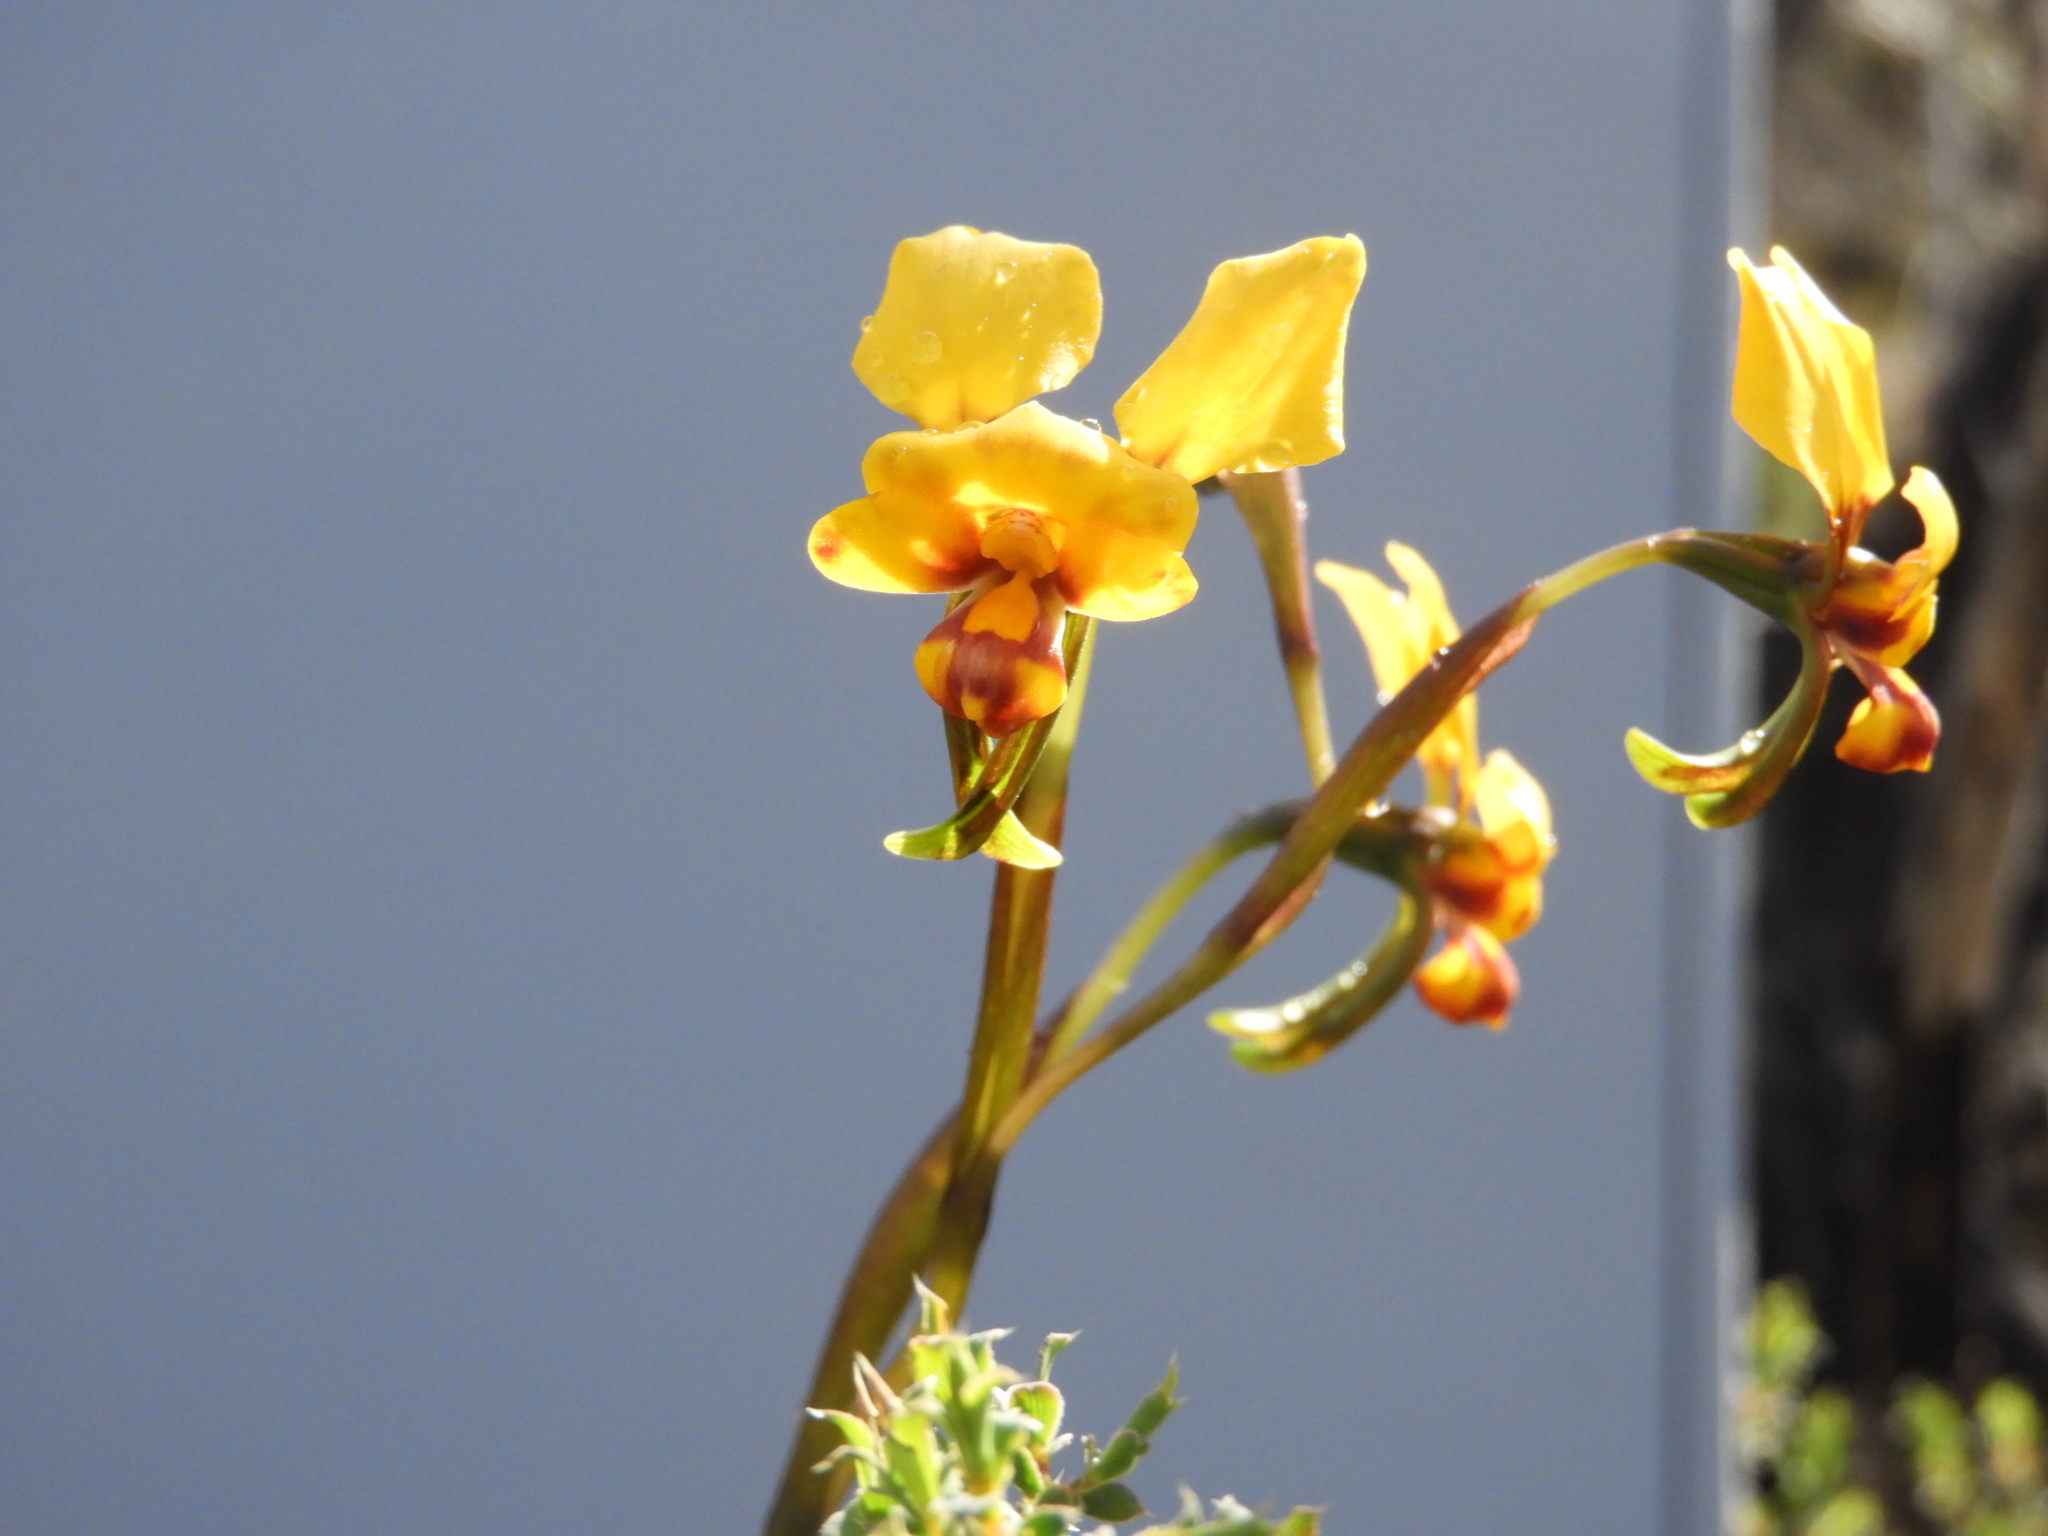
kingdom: Plantae
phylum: Tracheophyta
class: Liliopsida
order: Asparagales
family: Orchidaceae
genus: Diuris
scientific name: Diuris carecta
